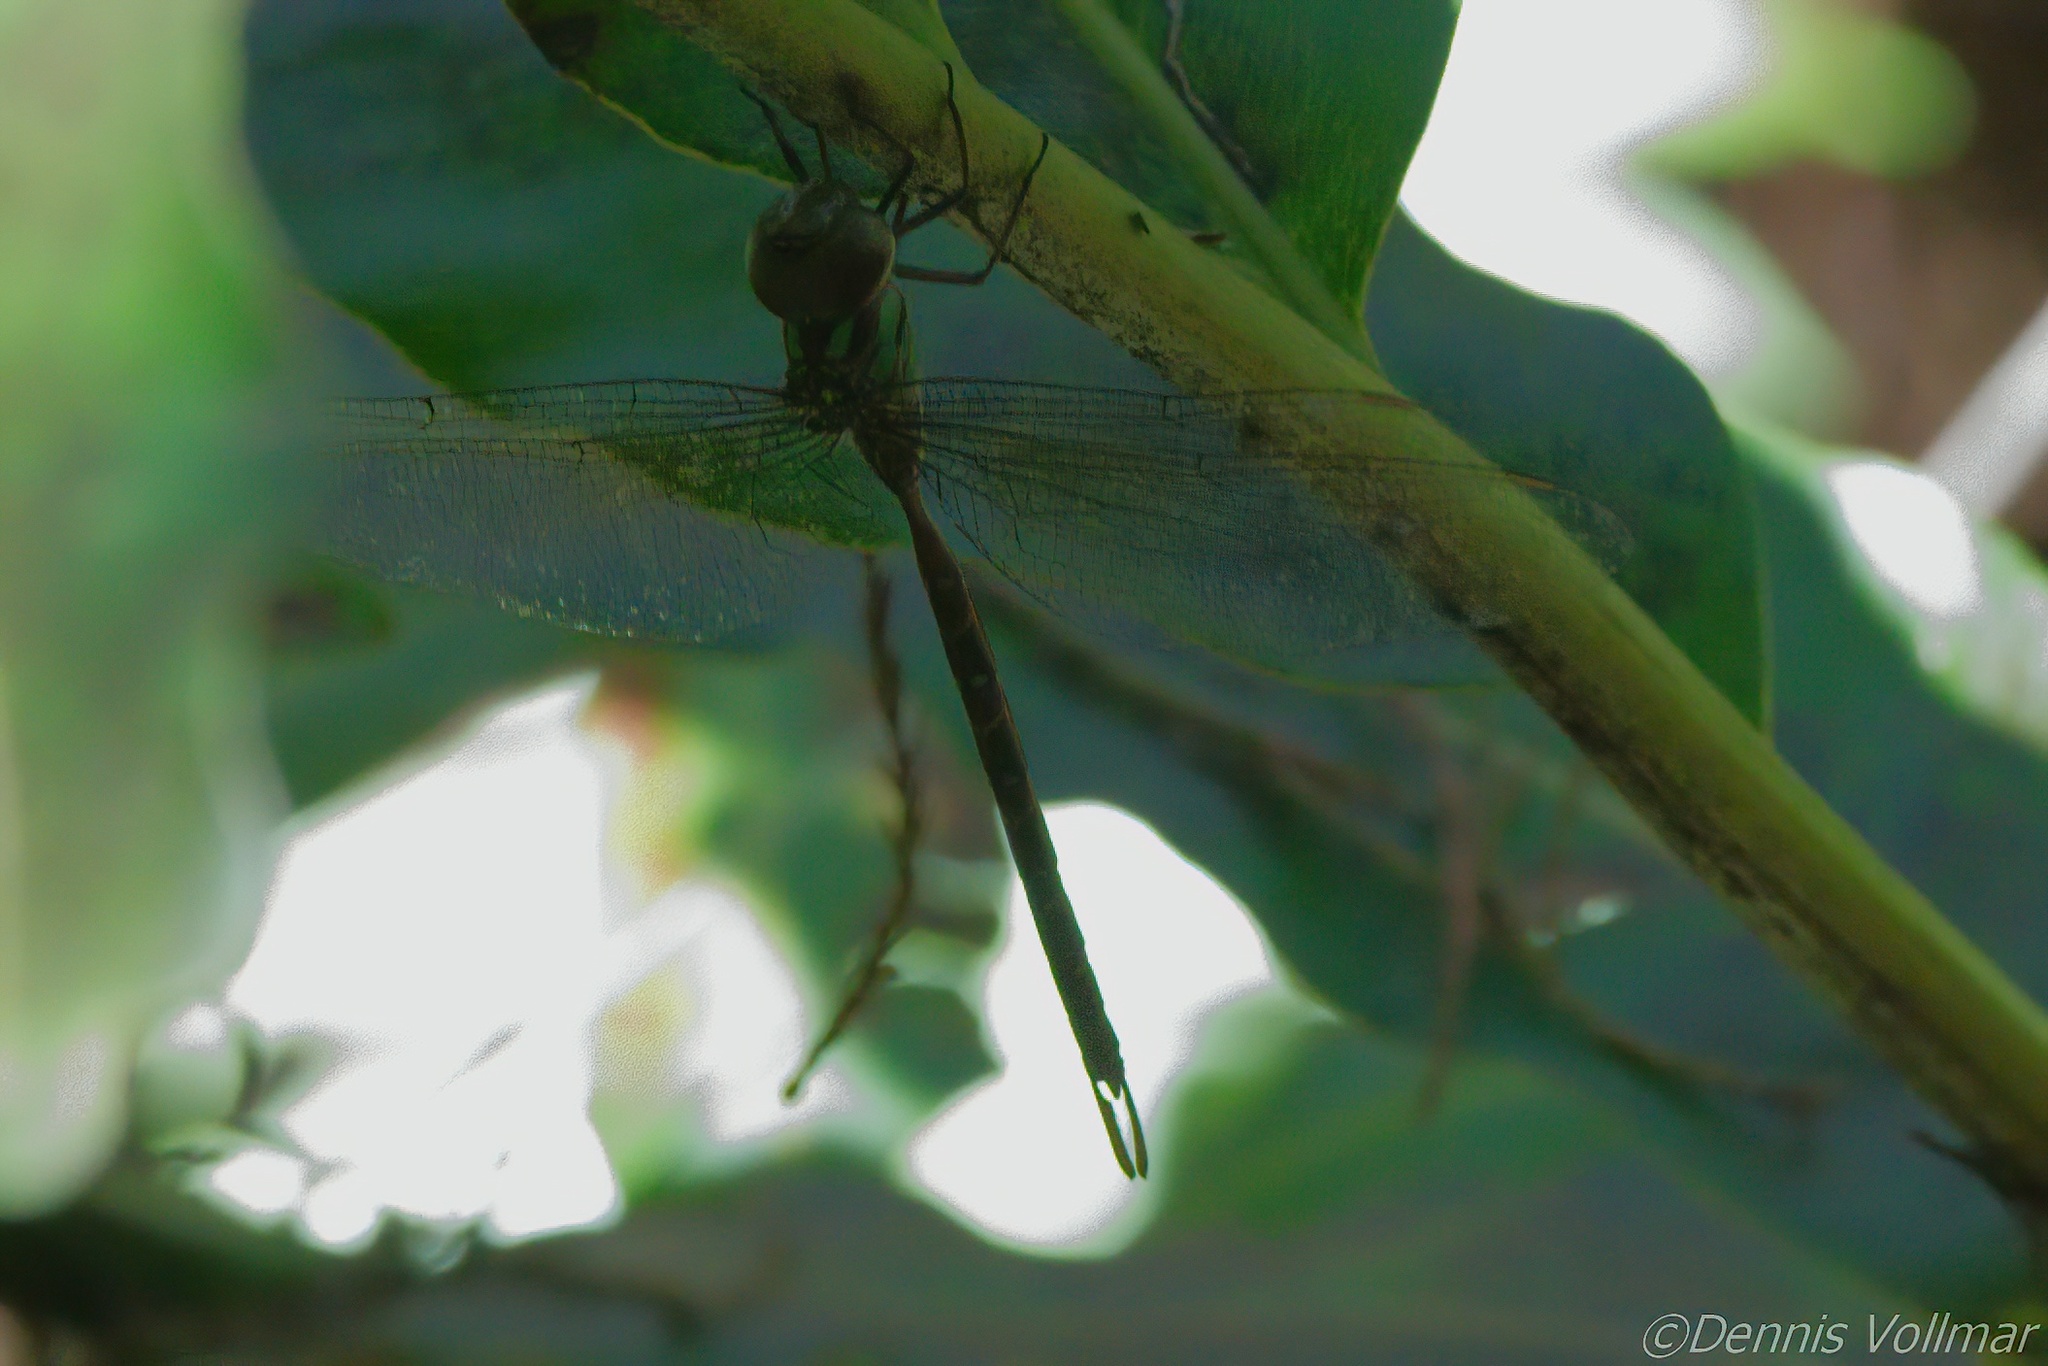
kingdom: Animalia
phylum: Arthropoda
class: Insecta
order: Odonata
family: Aeshnidae
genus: Triacanthagyna
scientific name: Triacanthagyna trifida
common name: Phantom darner
